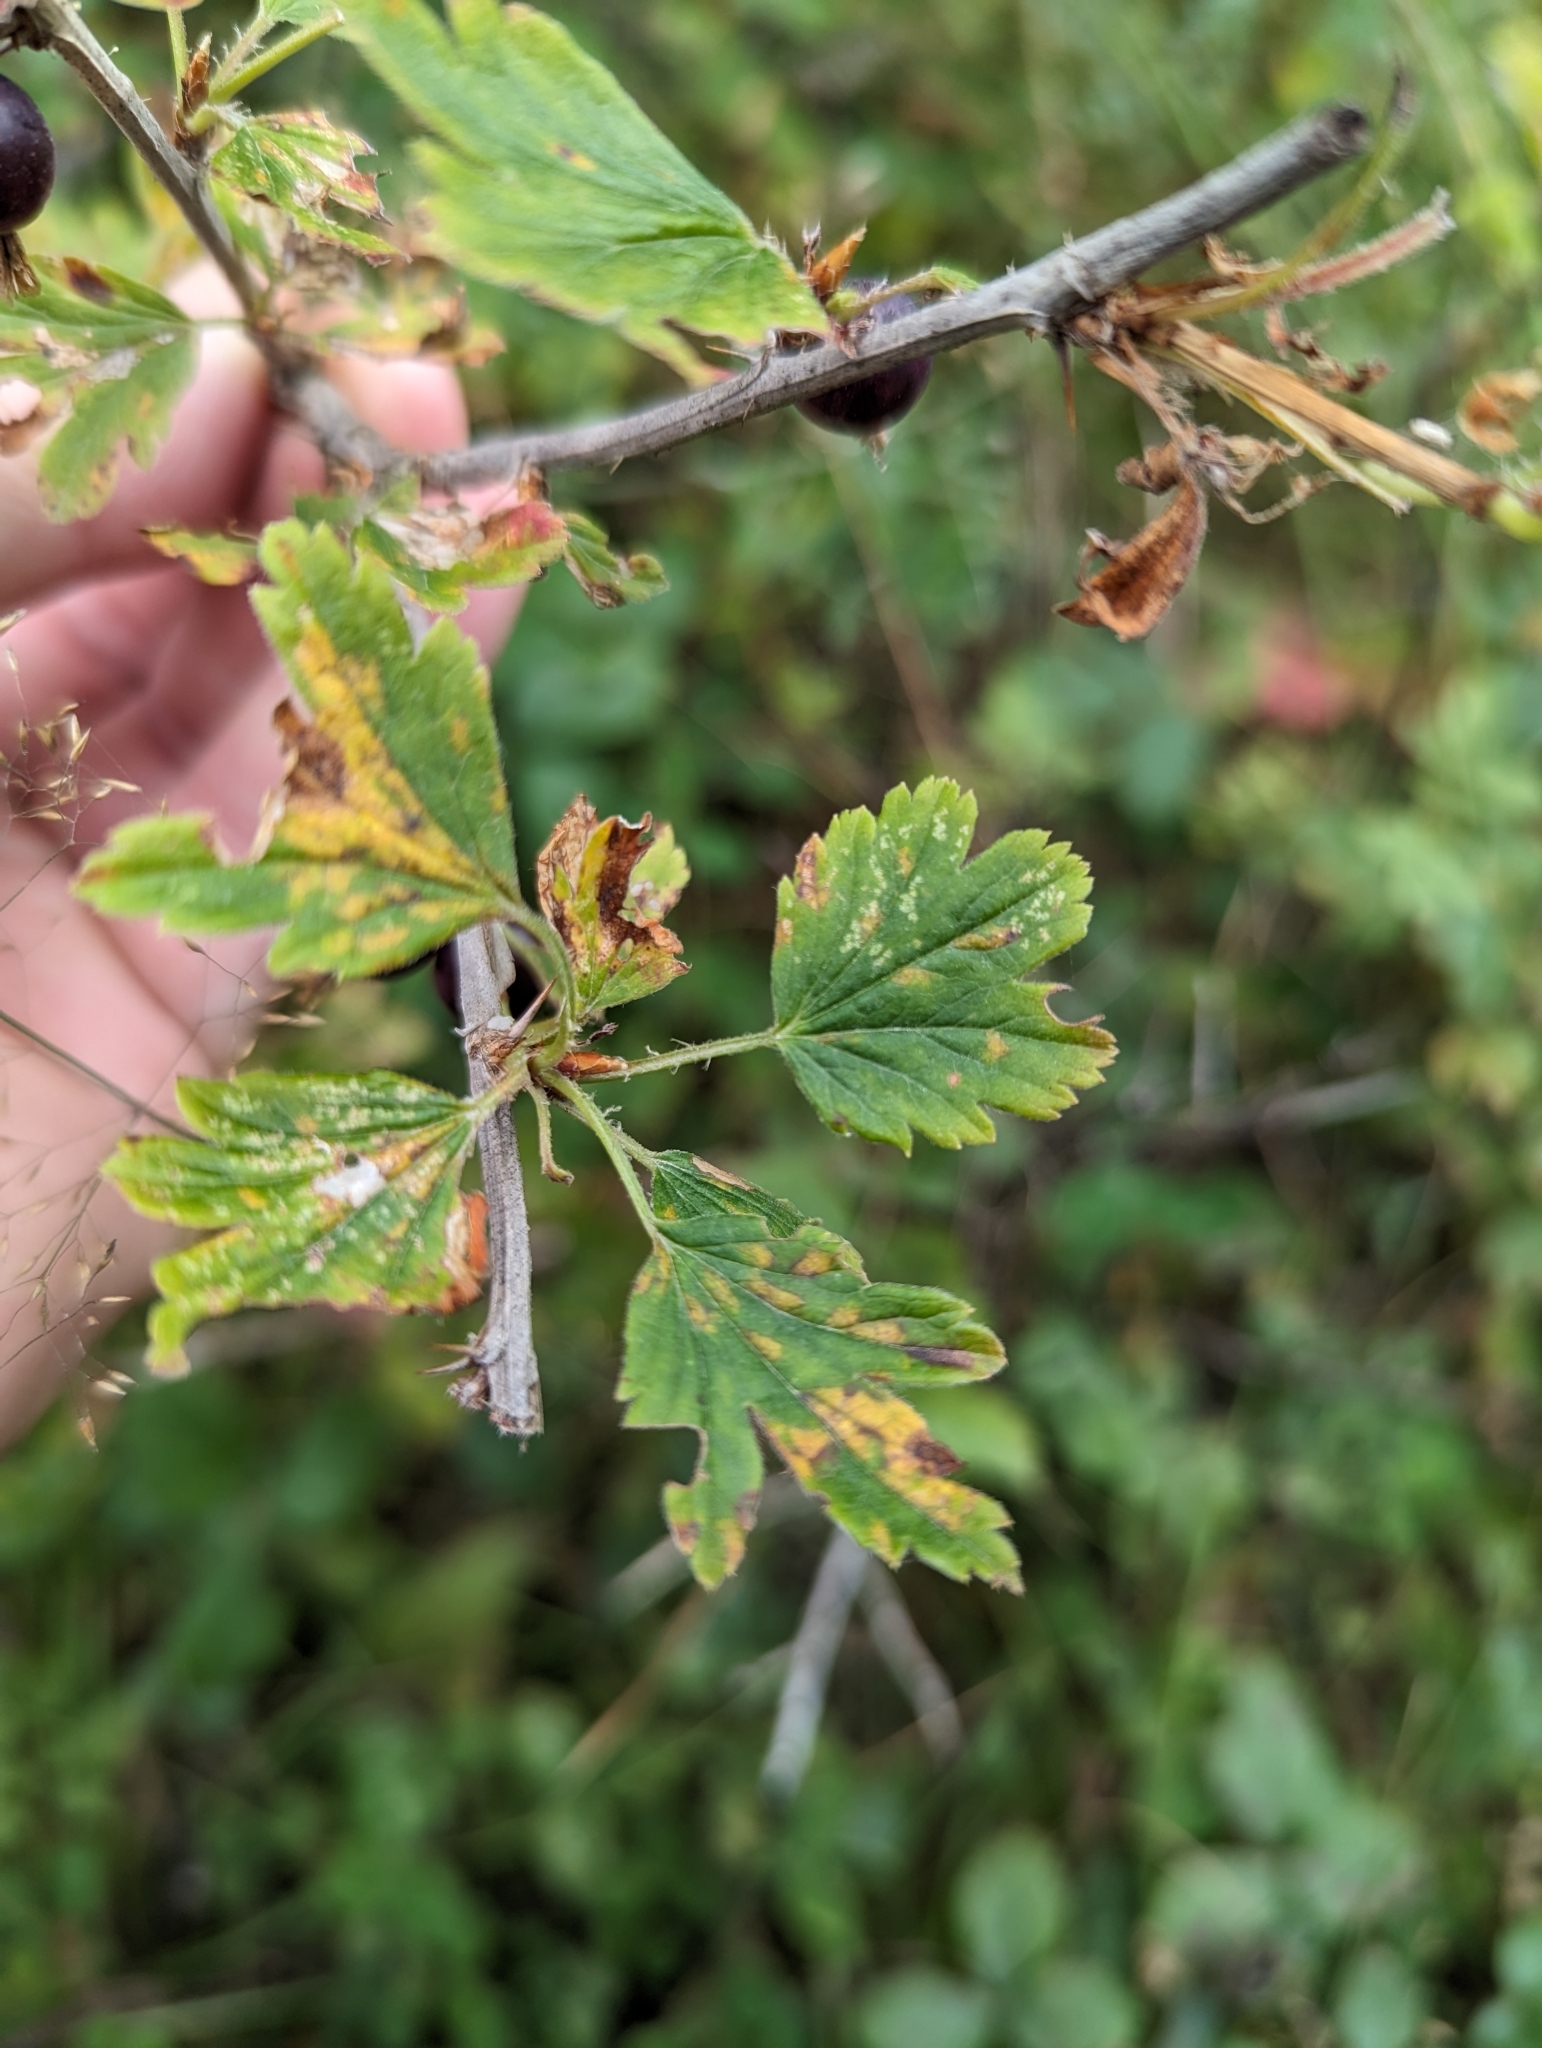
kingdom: Plantae
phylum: Tracheophyta
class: Magnoliopsida
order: Saxifragales
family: Grossulariaceae
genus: Ribes
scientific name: Ribes hirtellum
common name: Hairy gooseberry
